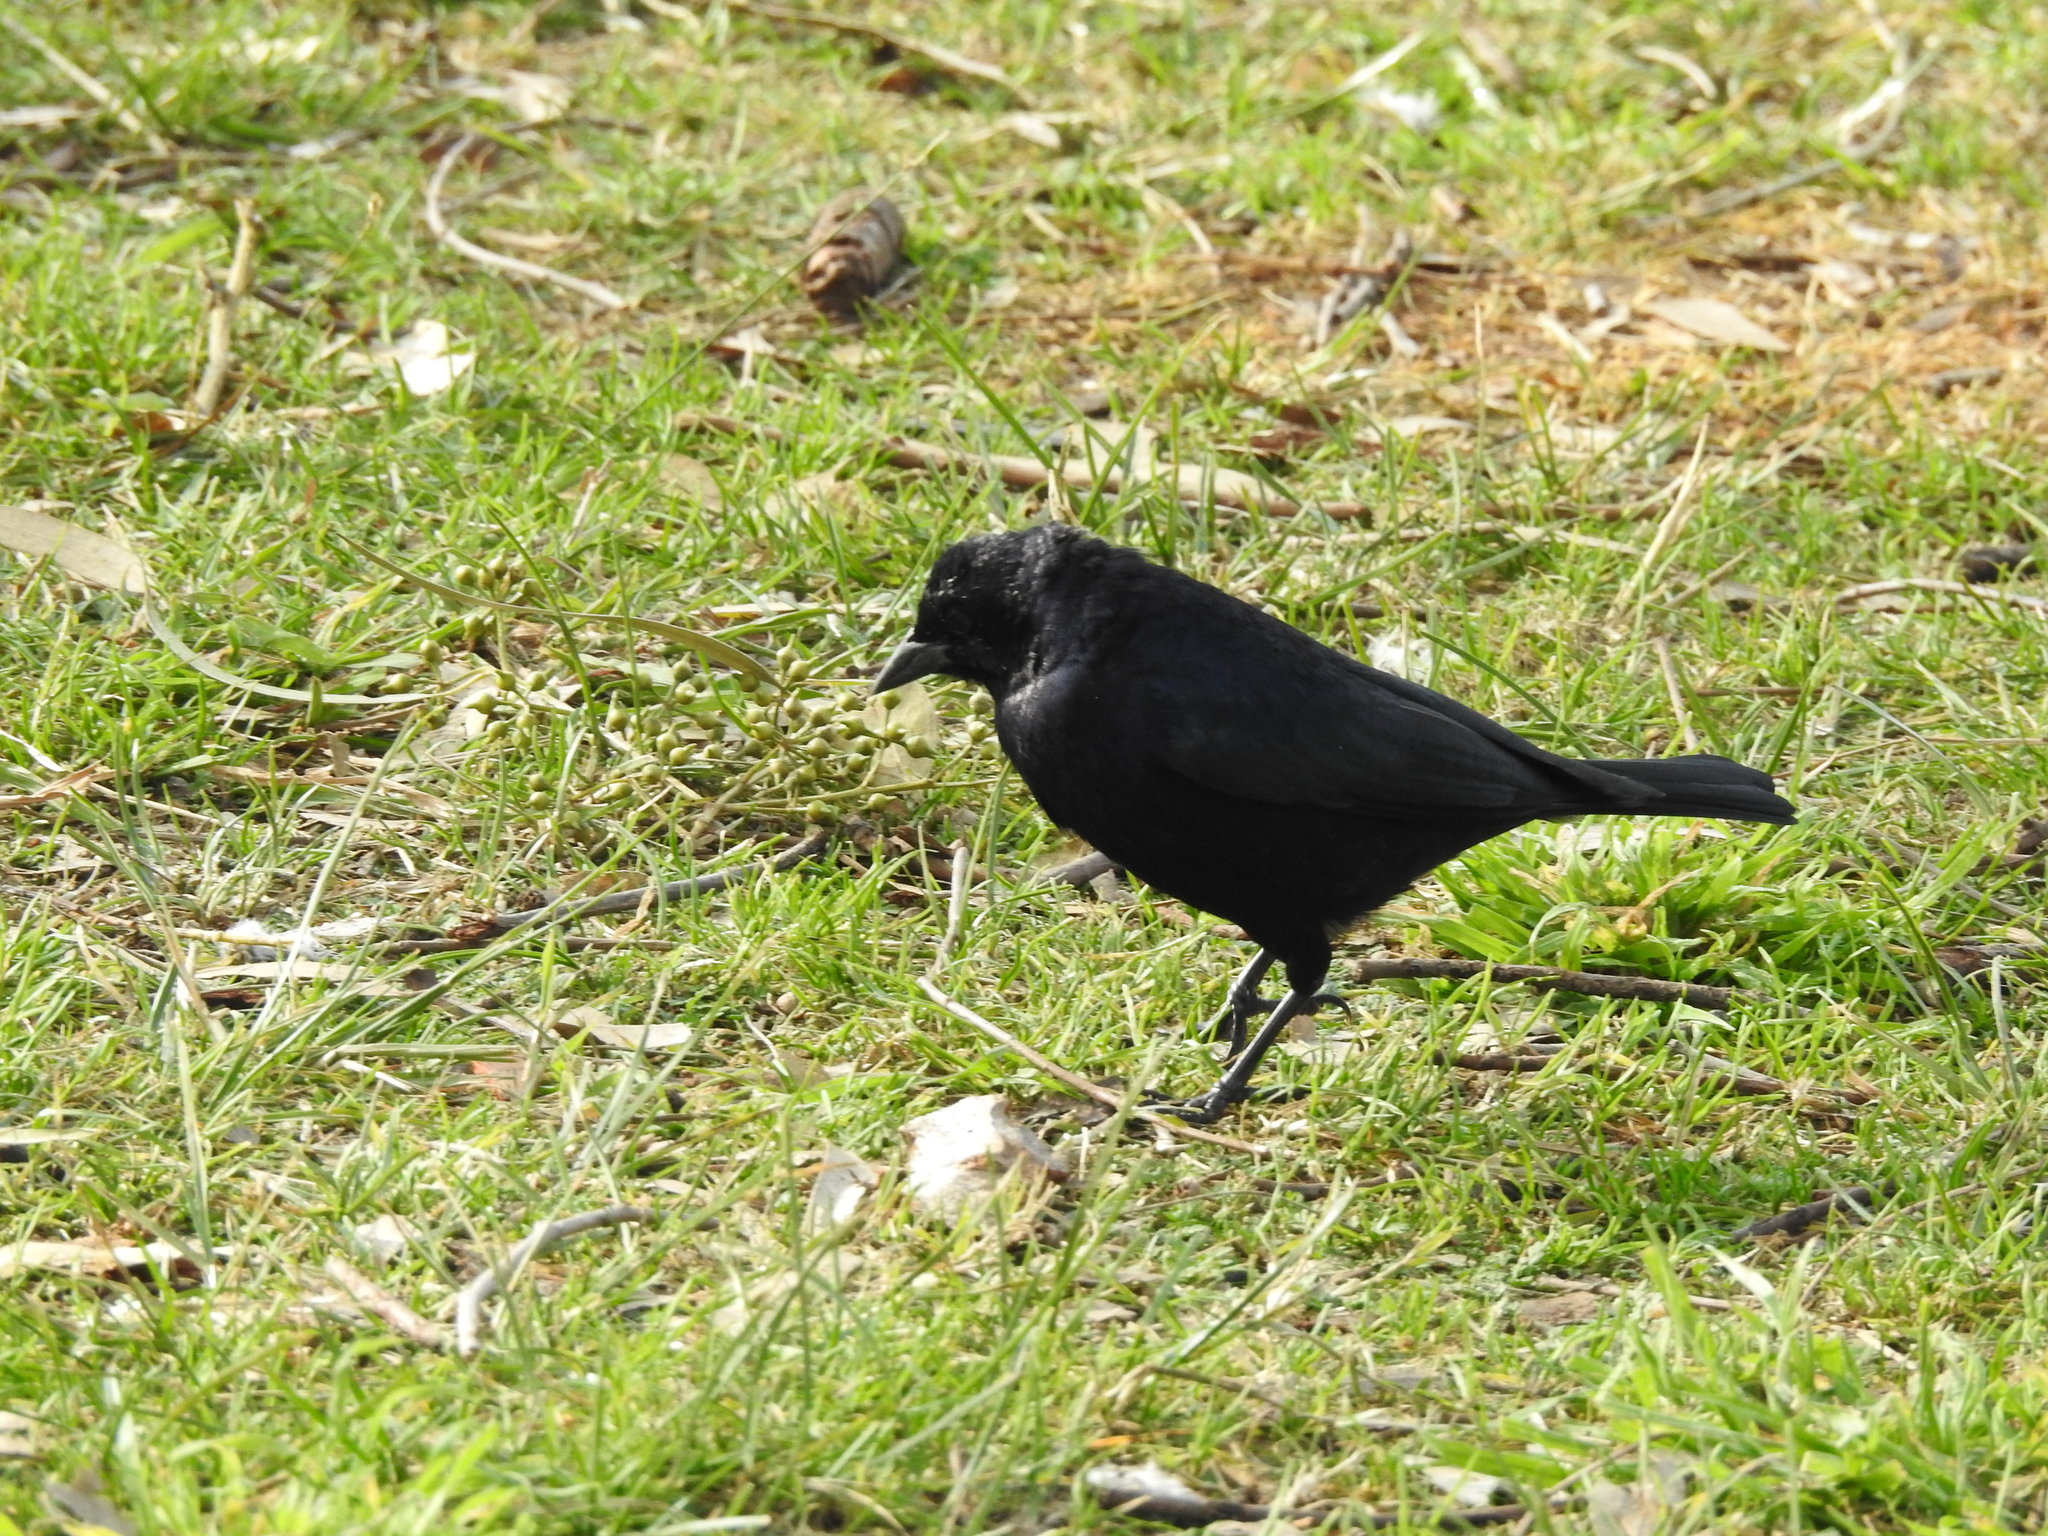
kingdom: Animalia
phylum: Chordata
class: Aves
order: Passeriformes
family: Icteridae
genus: Molothrus
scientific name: Molothrus bonariensis
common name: Shiny cowbird
